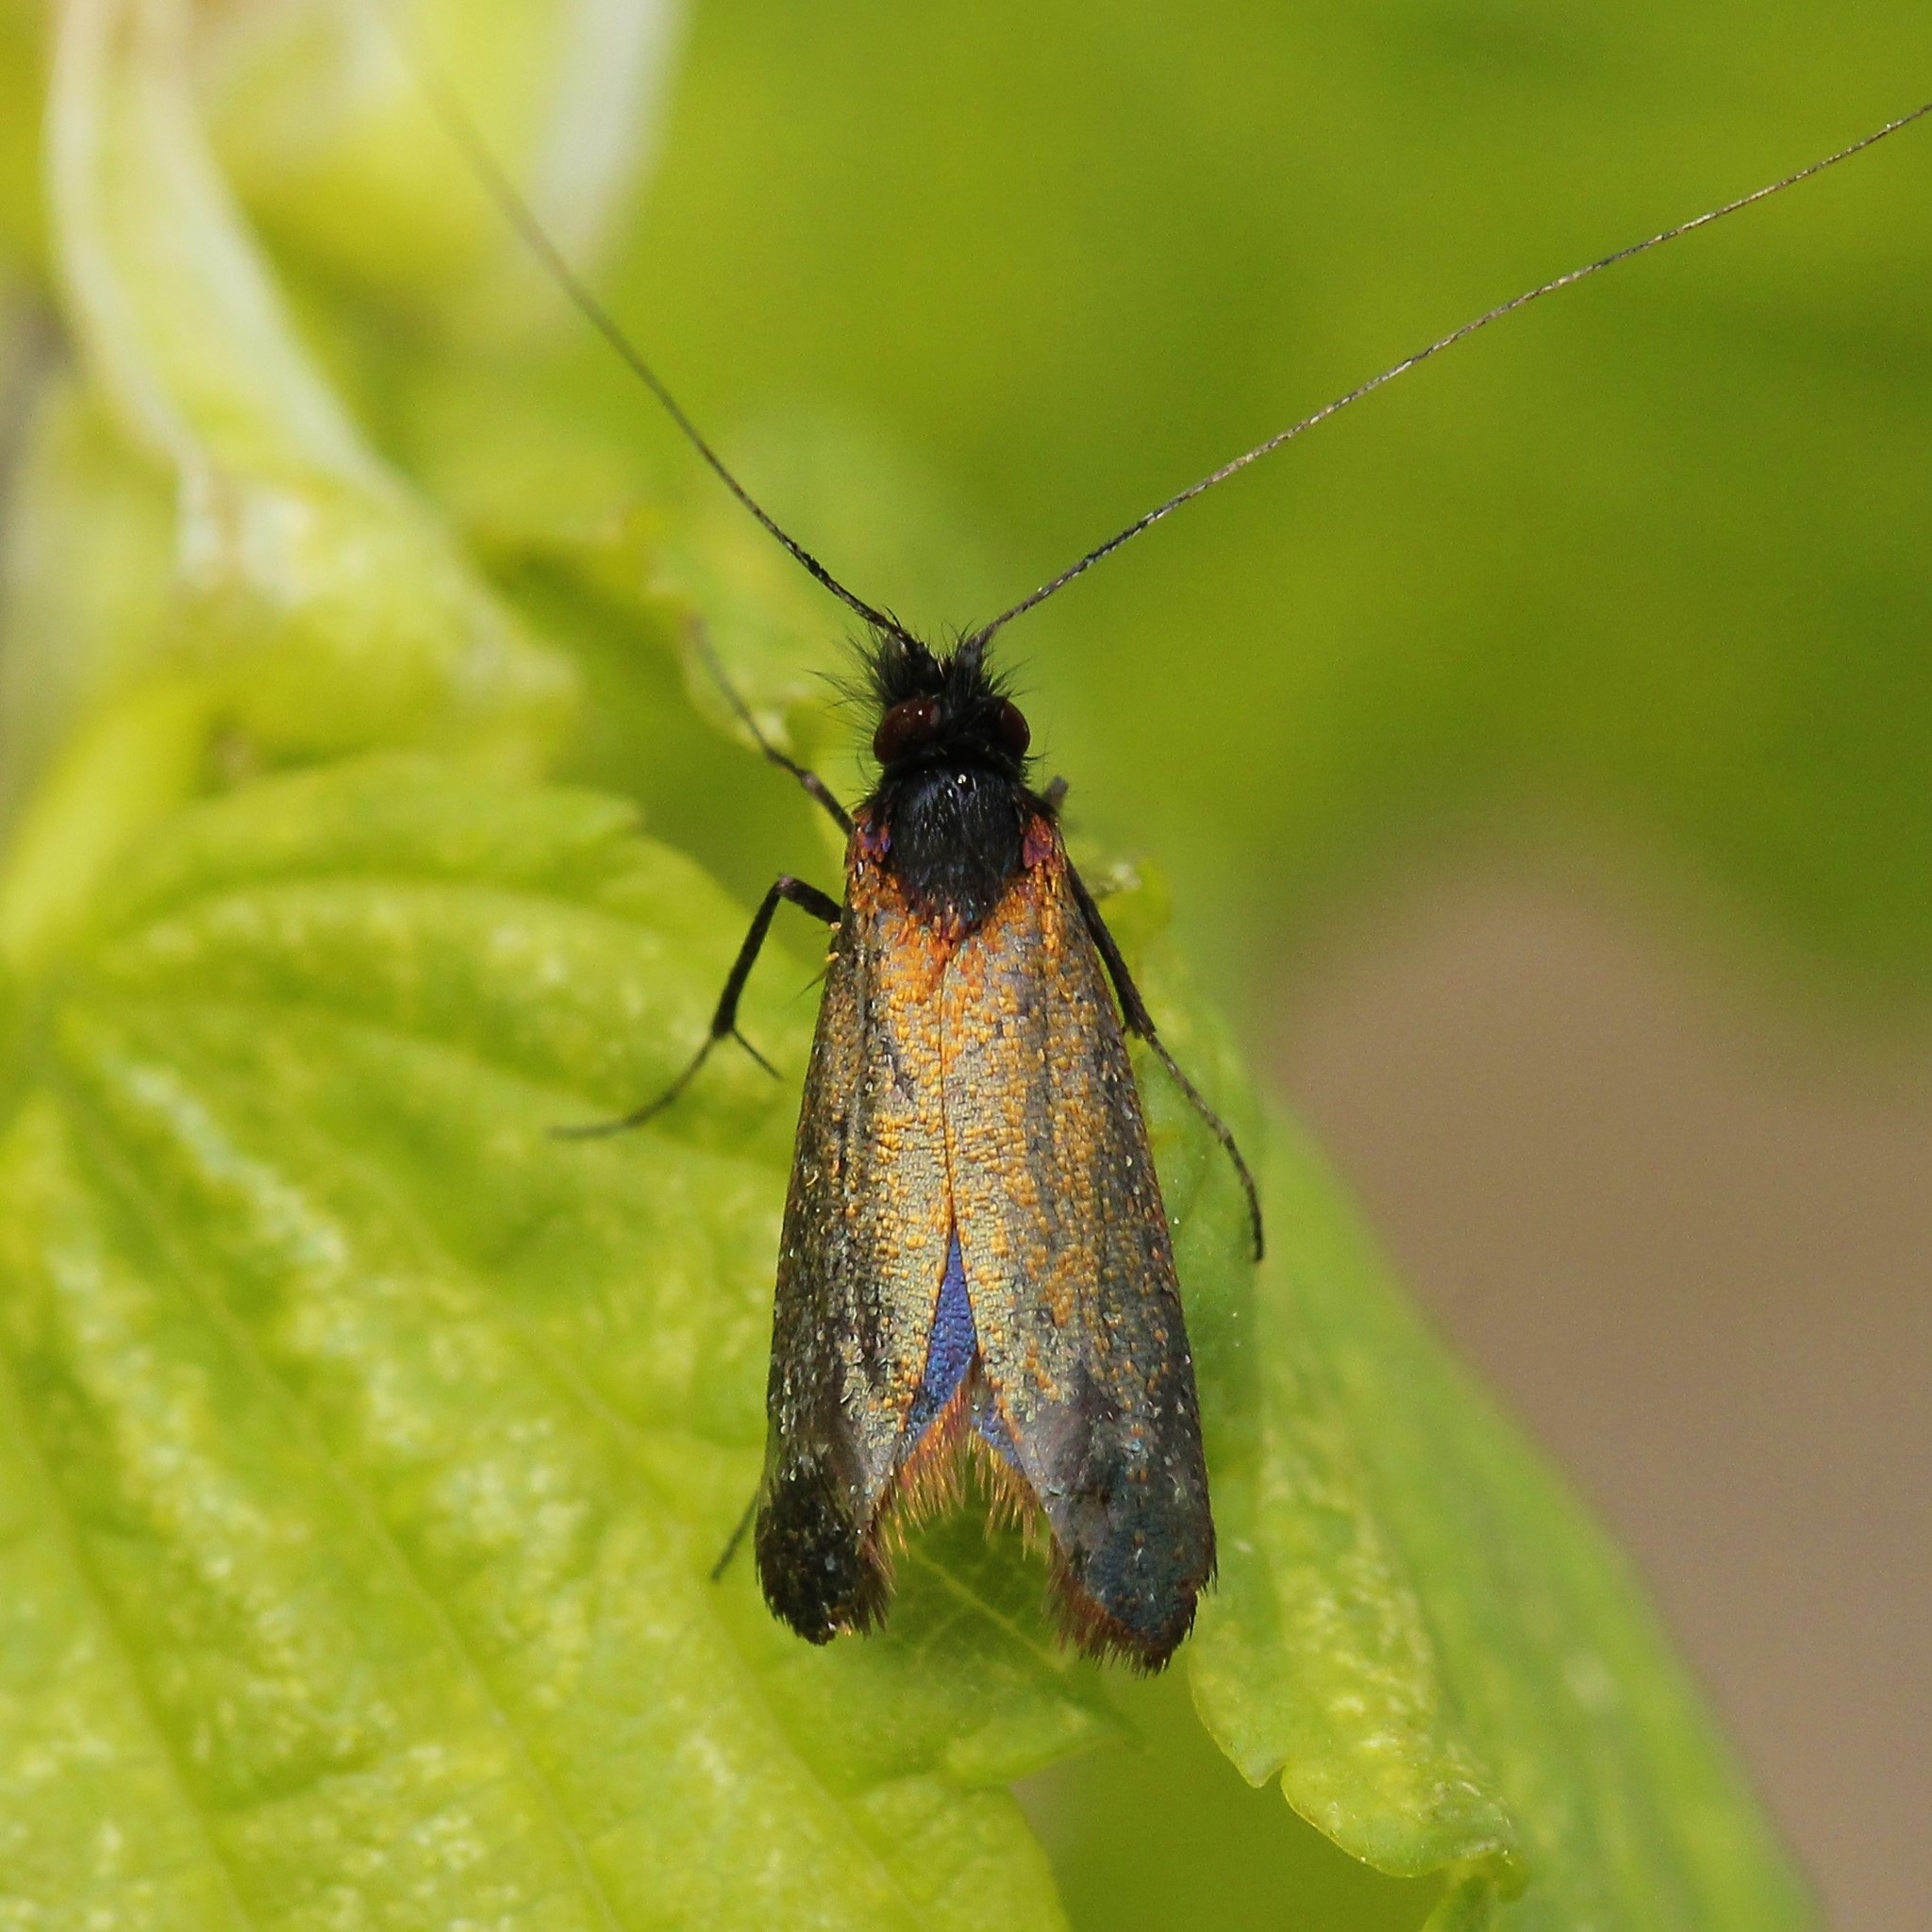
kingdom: Animalia
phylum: Arthropoda
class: Insecta
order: Lepidoptera
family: Adelidae
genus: Adela
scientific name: Adela cuprella
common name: Early long-horn
